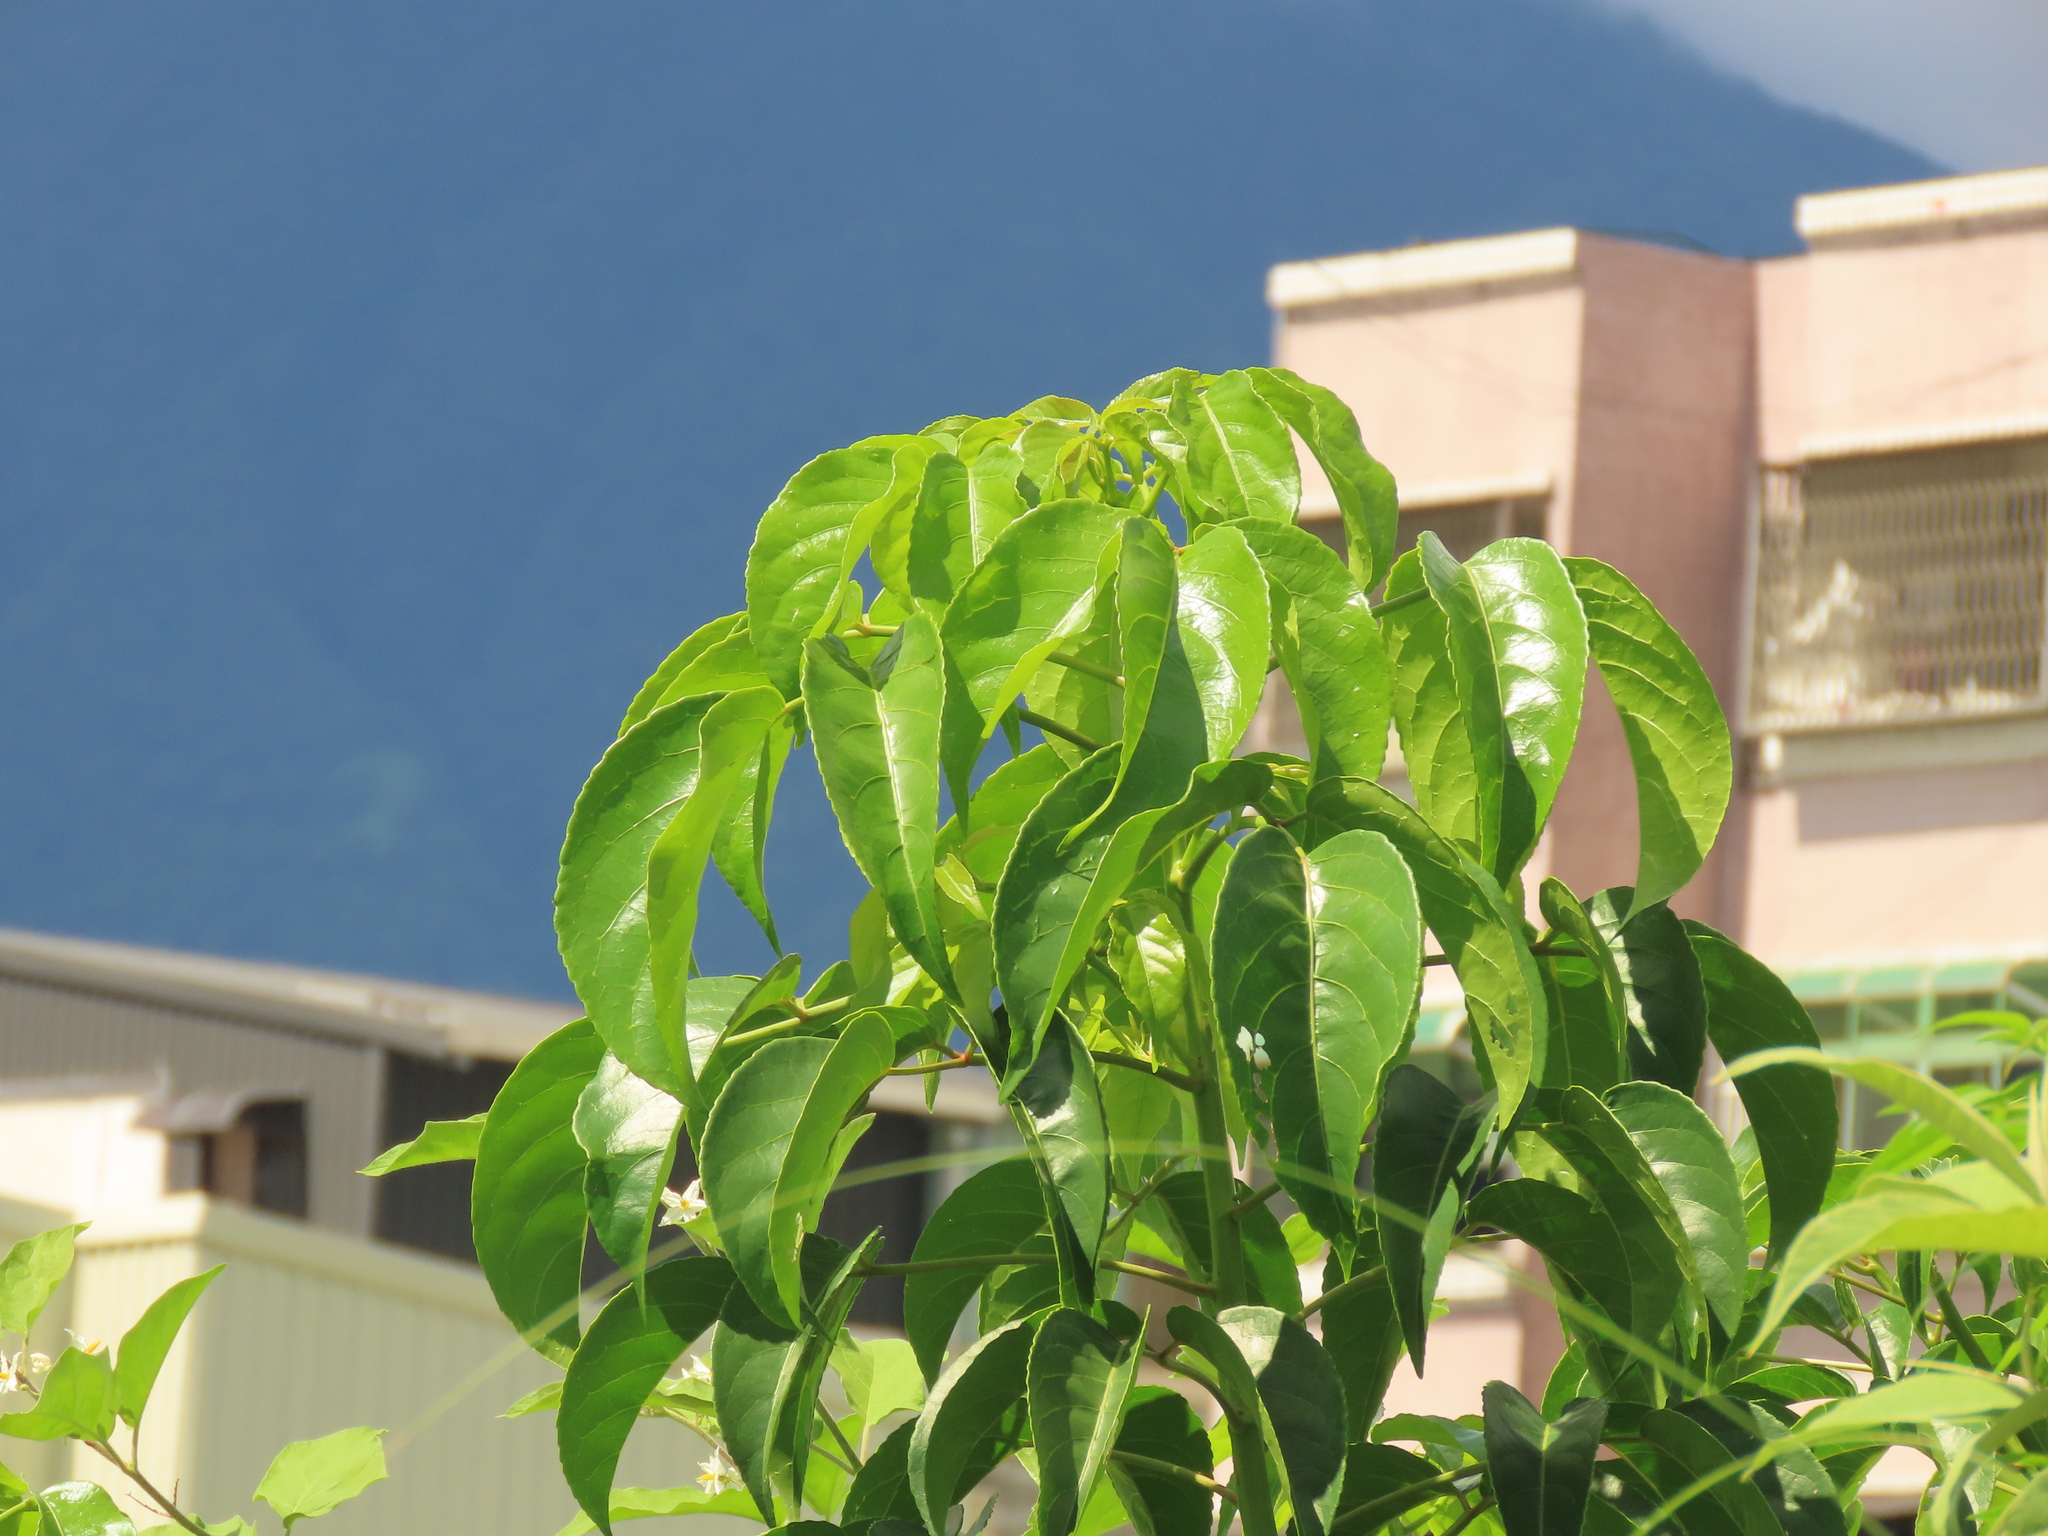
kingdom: Plantae
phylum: Tracheophyta
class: Magnoliopsida
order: Malpighiales
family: Phyllanthaceae
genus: Bischofia
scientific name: Bischofia javanica
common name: Javanese bishopwood
